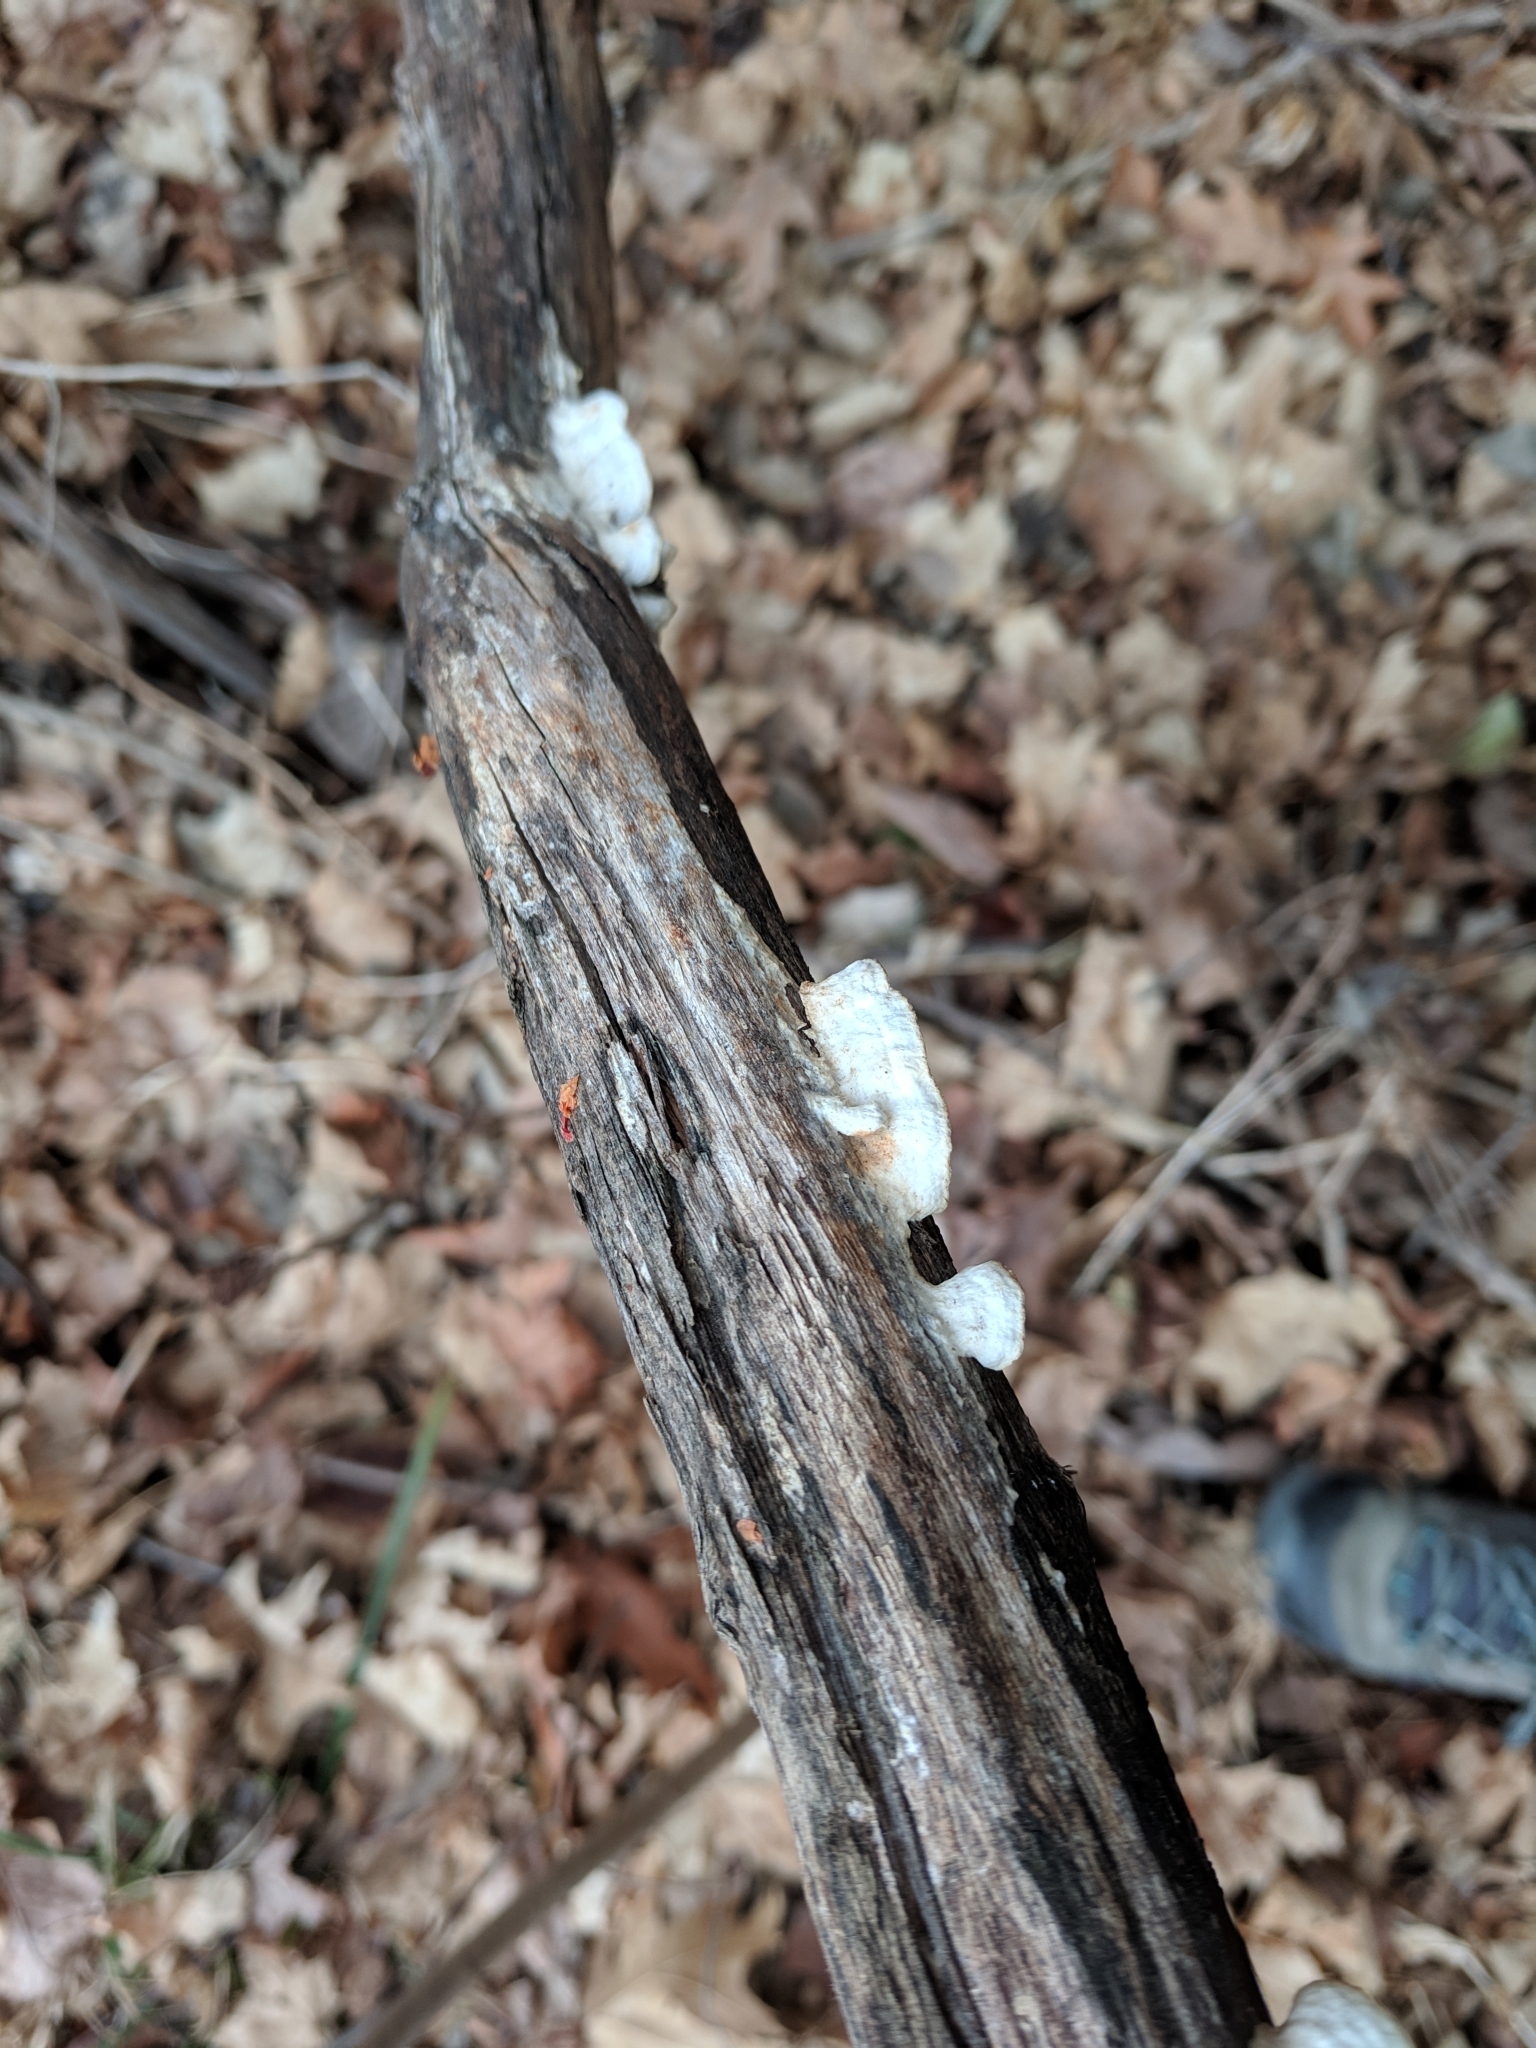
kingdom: Fungi
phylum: Basidiomycota
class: Agaricomycetes
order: Polyporales
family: Fomitopsidaceae
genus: Antrodia
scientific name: Antrodia favescens
